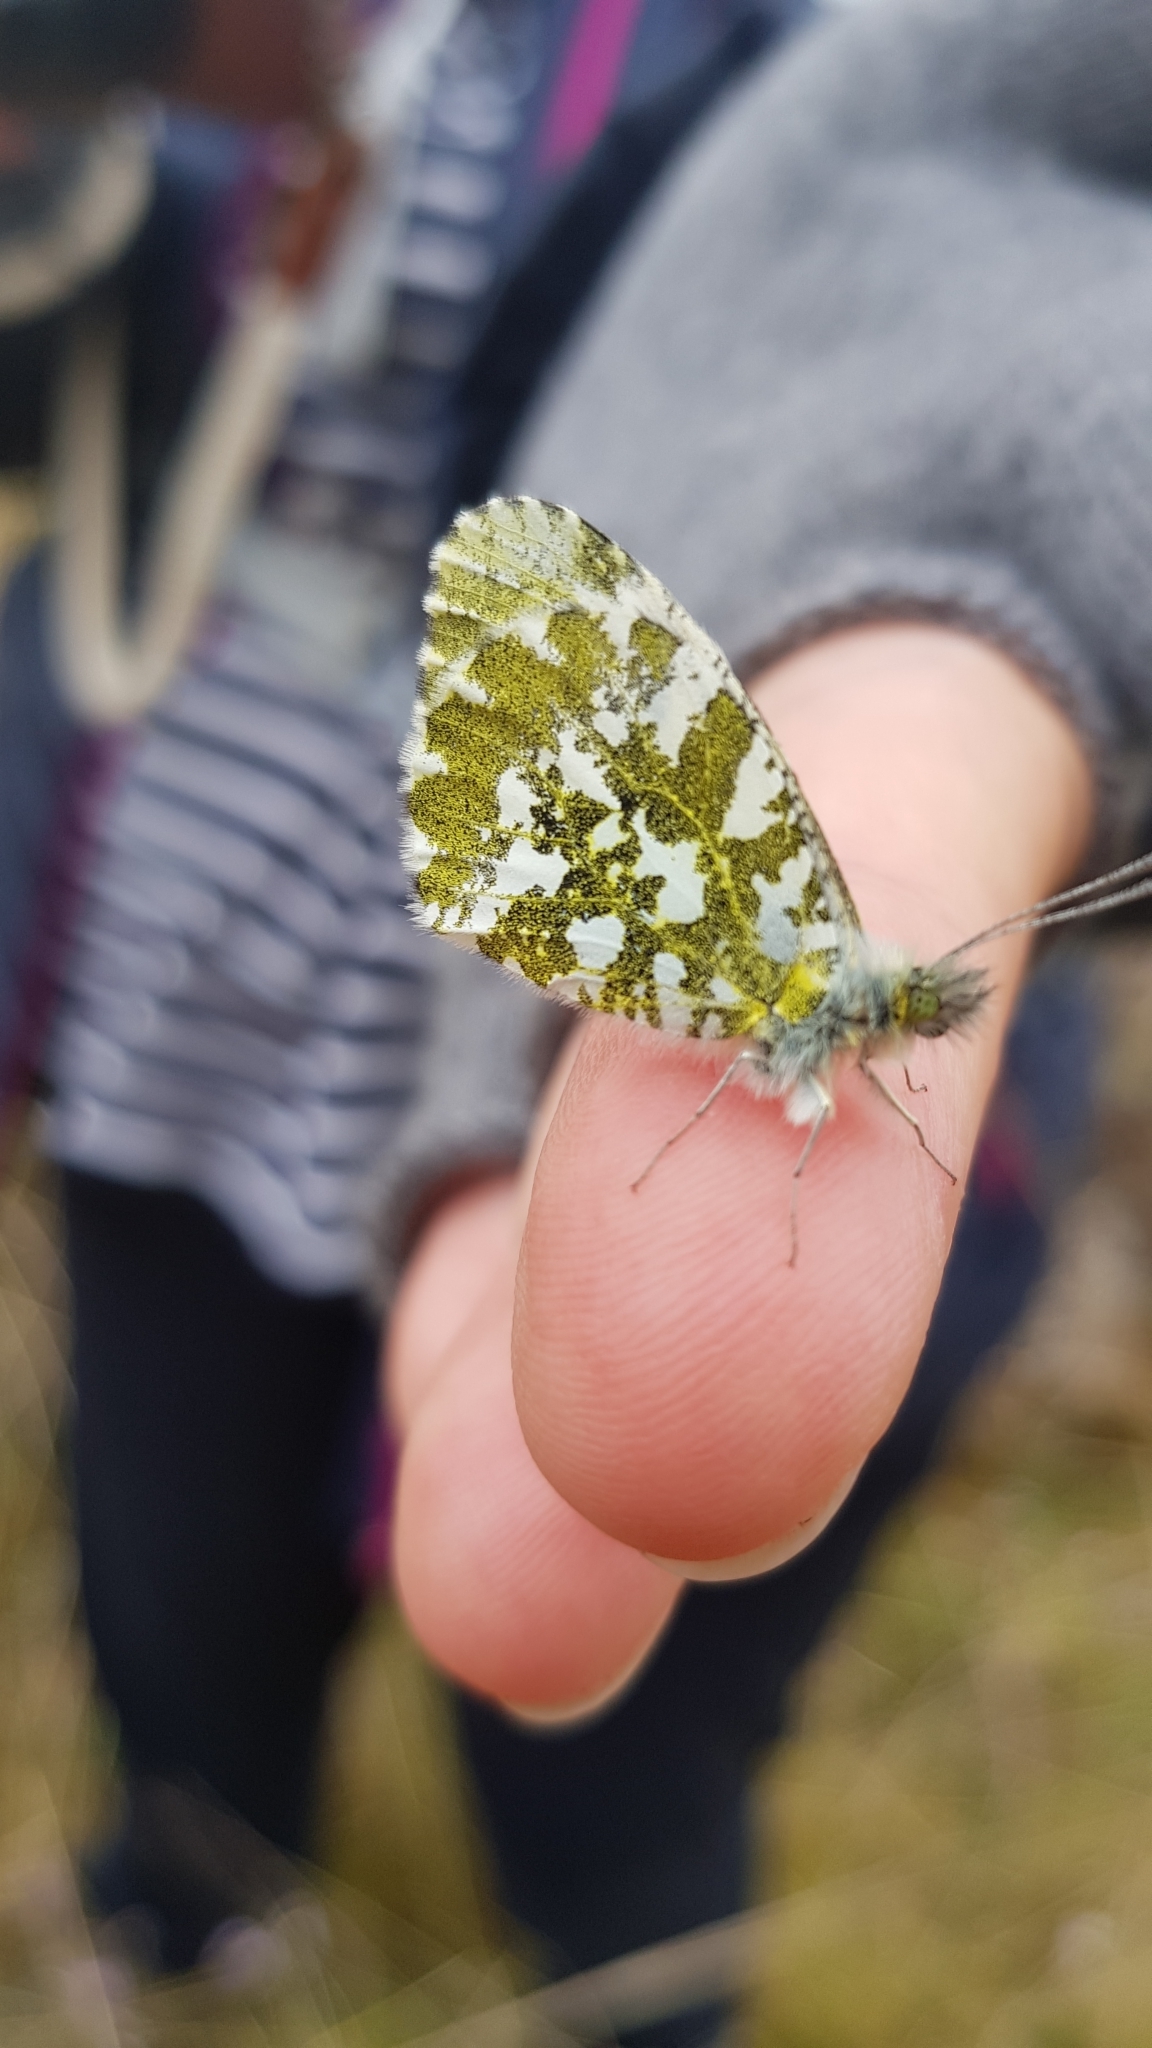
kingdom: Animalia
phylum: Arthropoda
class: Insecta
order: Lepidoptera
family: Pieridae
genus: Anthocharis
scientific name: Anthocharis cardamines
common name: Orange-tip
